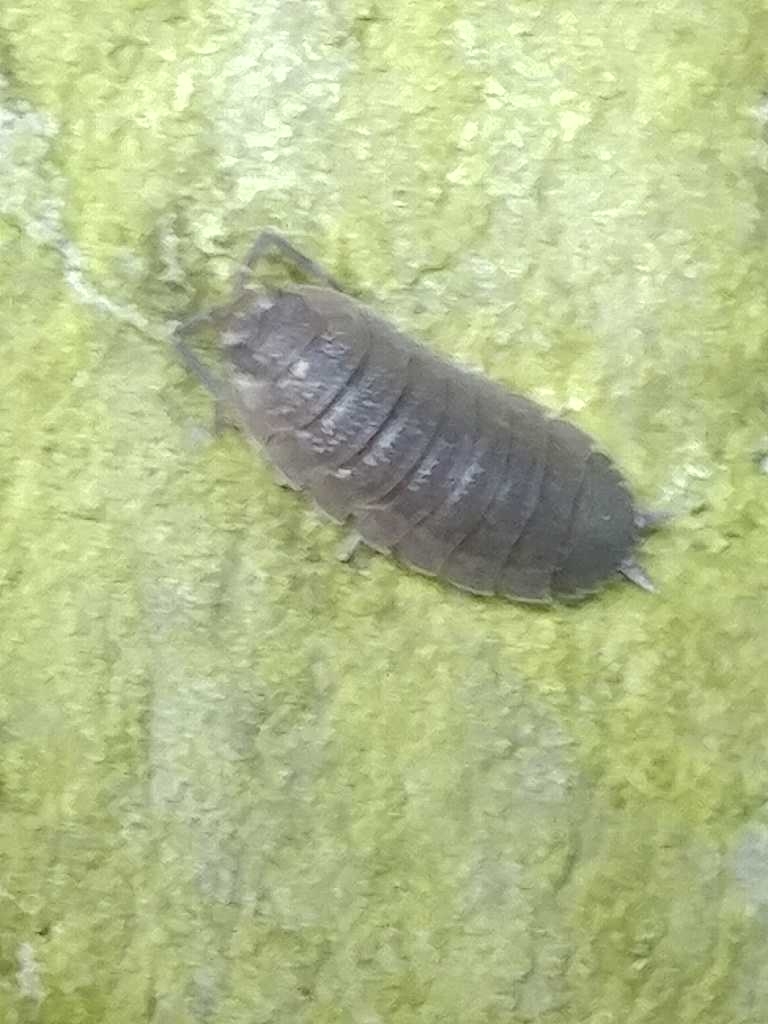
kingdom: Animalia
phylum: Arthropoda
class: Malacostraca
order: Isopoda
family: Porcellionidae
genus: Porcellio
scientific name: Porcellio scaber
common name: Common rough woodlouse
